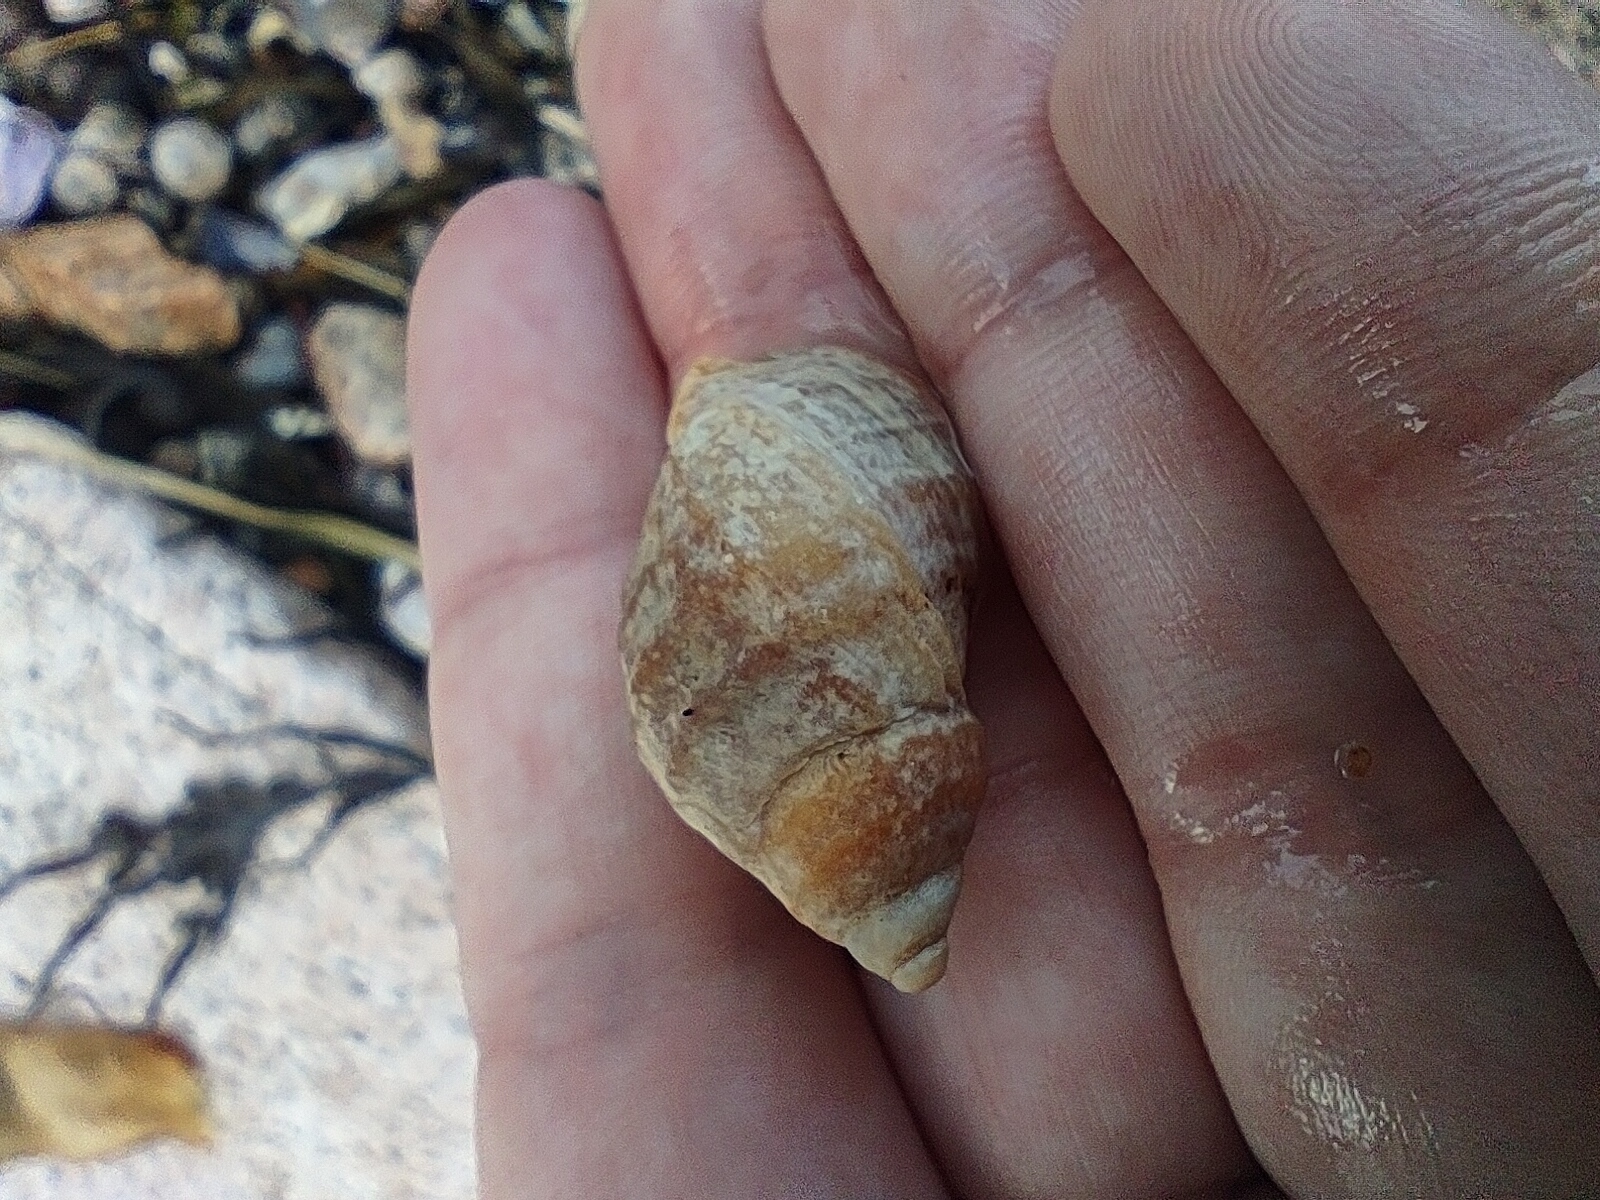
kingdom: Animalia
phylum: Mollusca
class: Gastropoda
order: Neogastropoda
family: Muricidae
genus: Nucella
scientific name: Nucella lapillus
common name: Dog whelk
